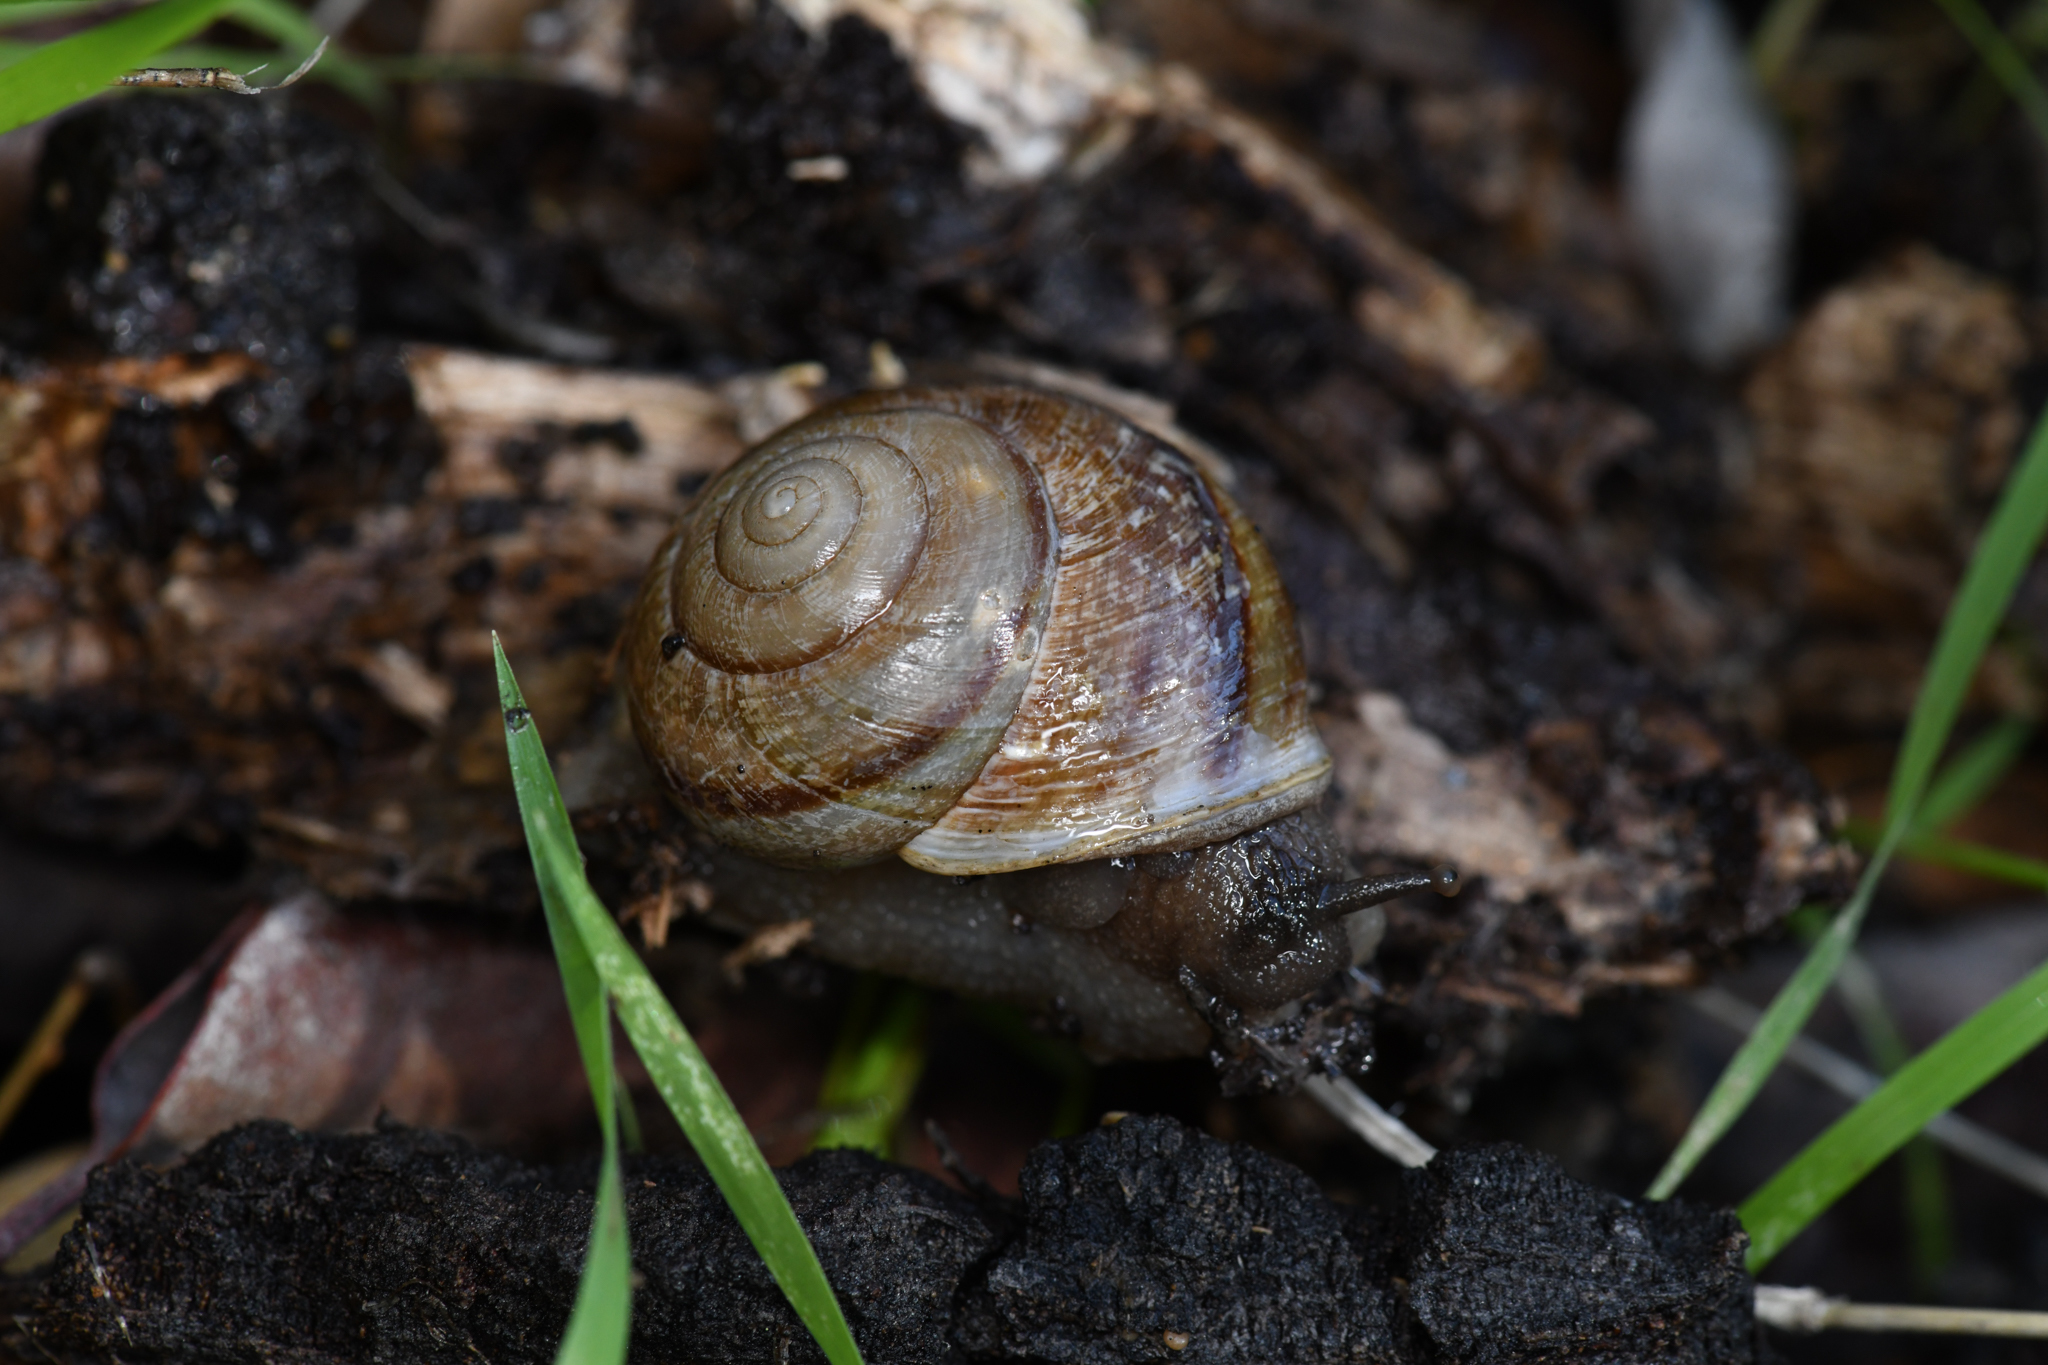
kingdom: Animalia
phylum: Mollusca
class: Gastropoda
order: Stylommatophora
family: Xanthonychidae
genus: Xerarionta
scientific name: Xerarionta stearnsiana
